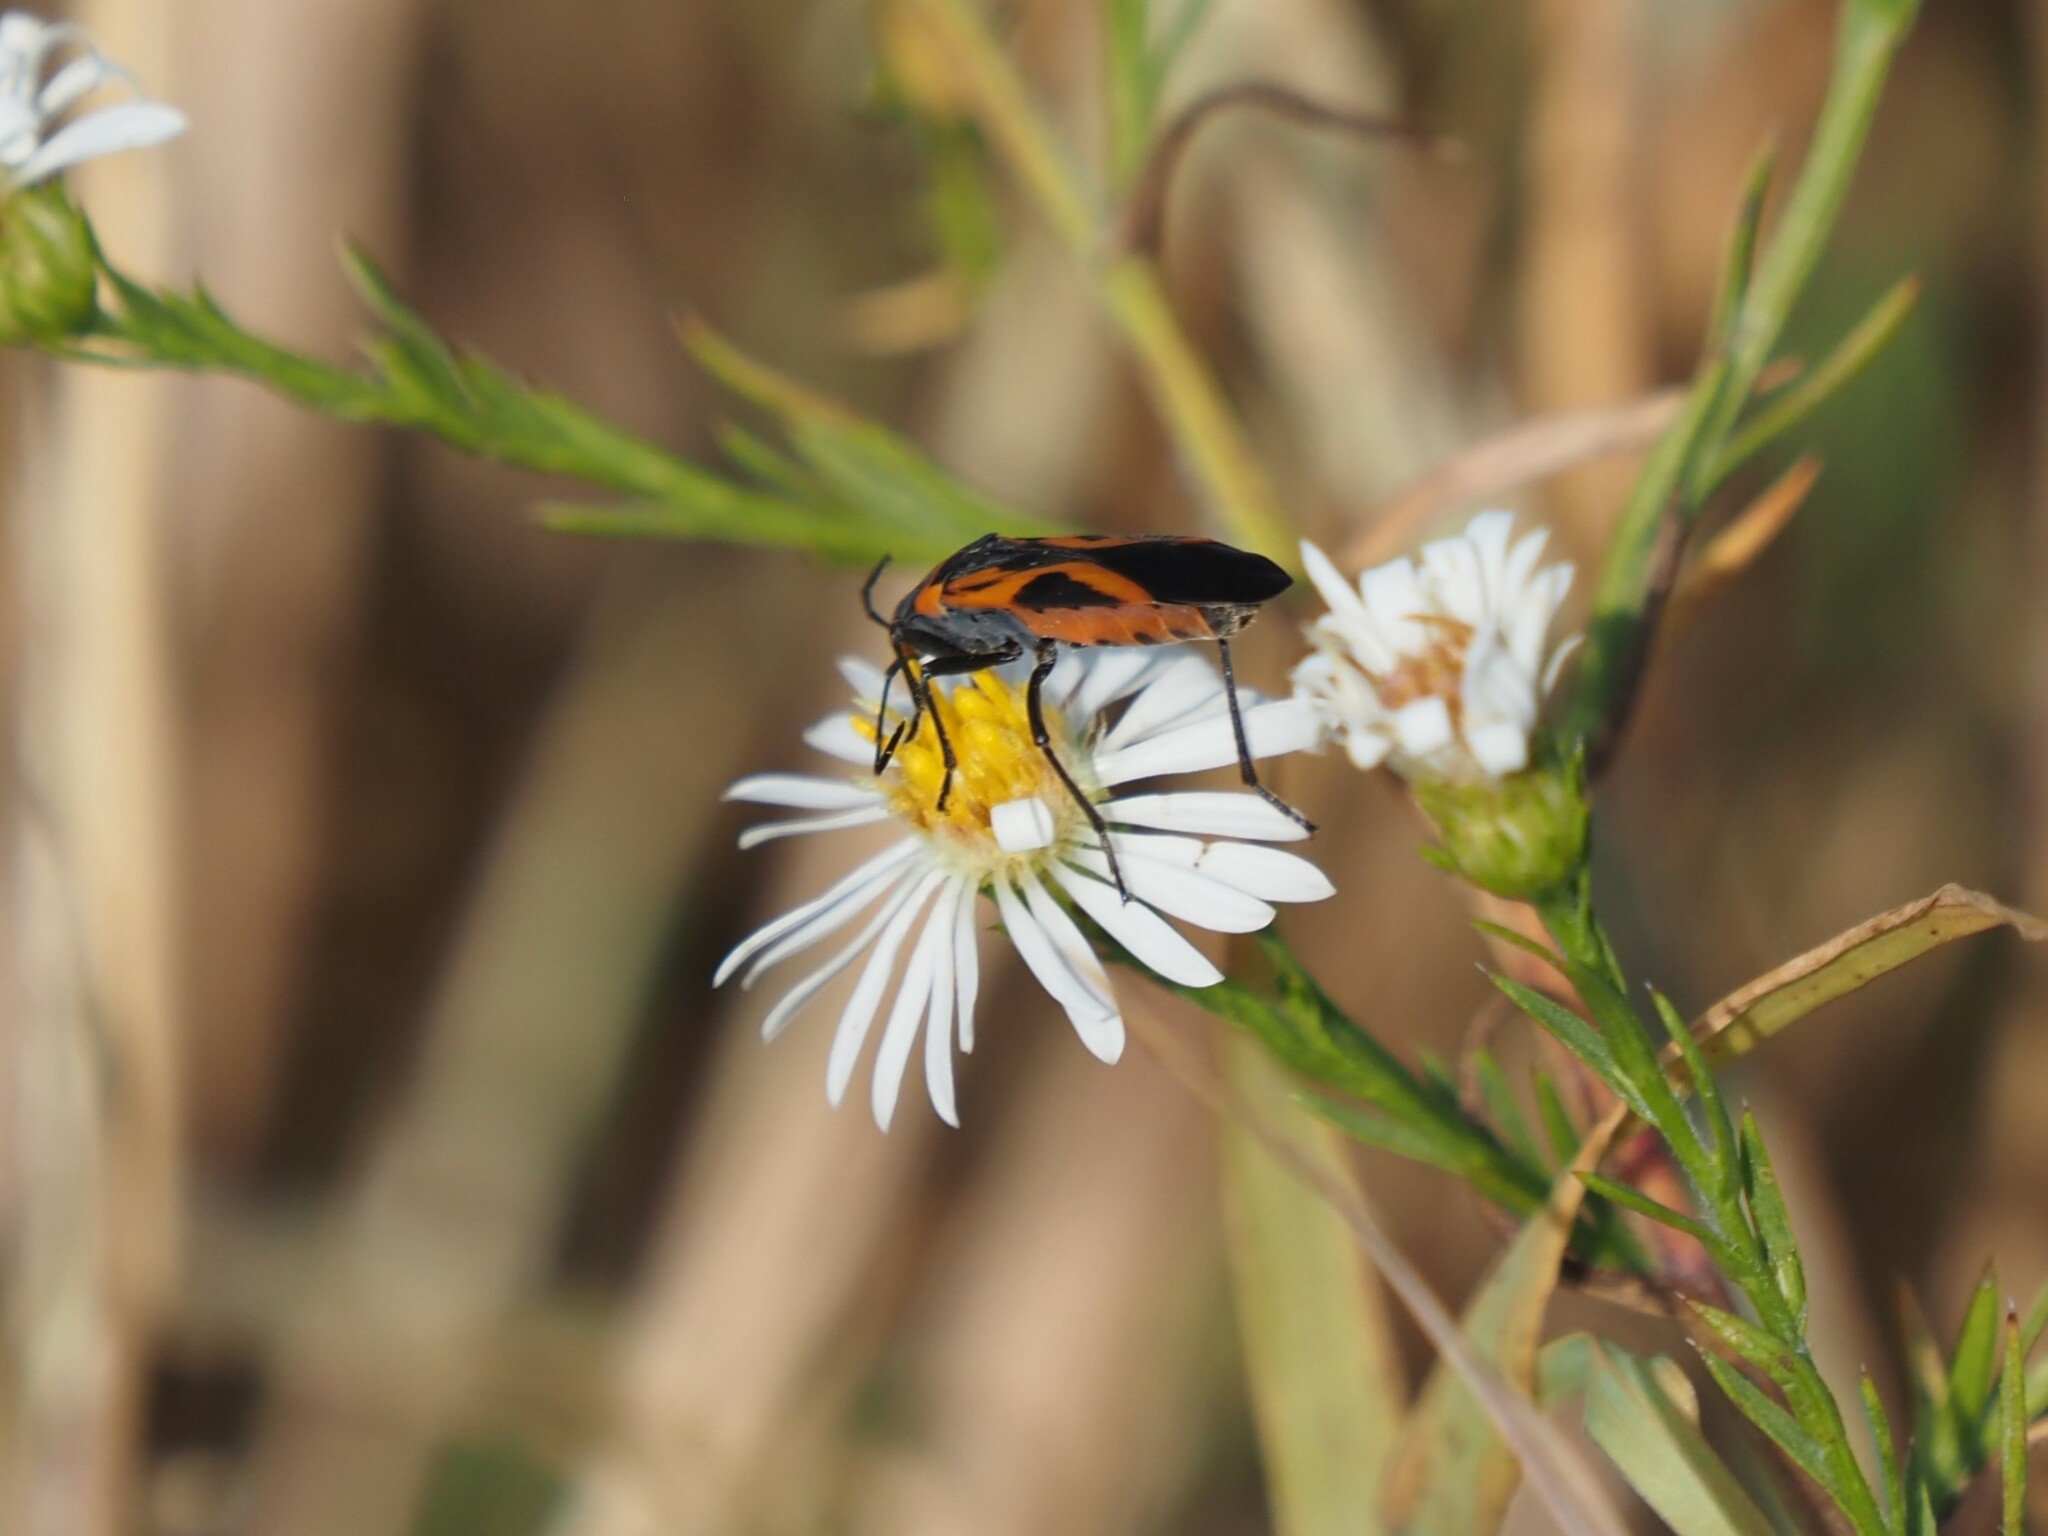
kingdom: Animalia
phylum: Arthropoda
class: Insecta
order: Hemiptera
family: Lygaeidae
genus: Lygaeus
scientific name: Lygaeus turcicus
